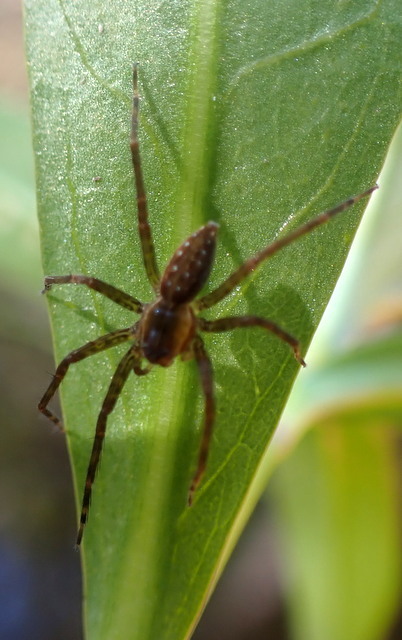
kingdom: Animalia
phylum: Arthropoda
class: Arachnida
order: Araneae
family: Pisauridae
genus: Dolomedes
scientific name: Dolomedes triton
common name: Six-spotted fishing spider
